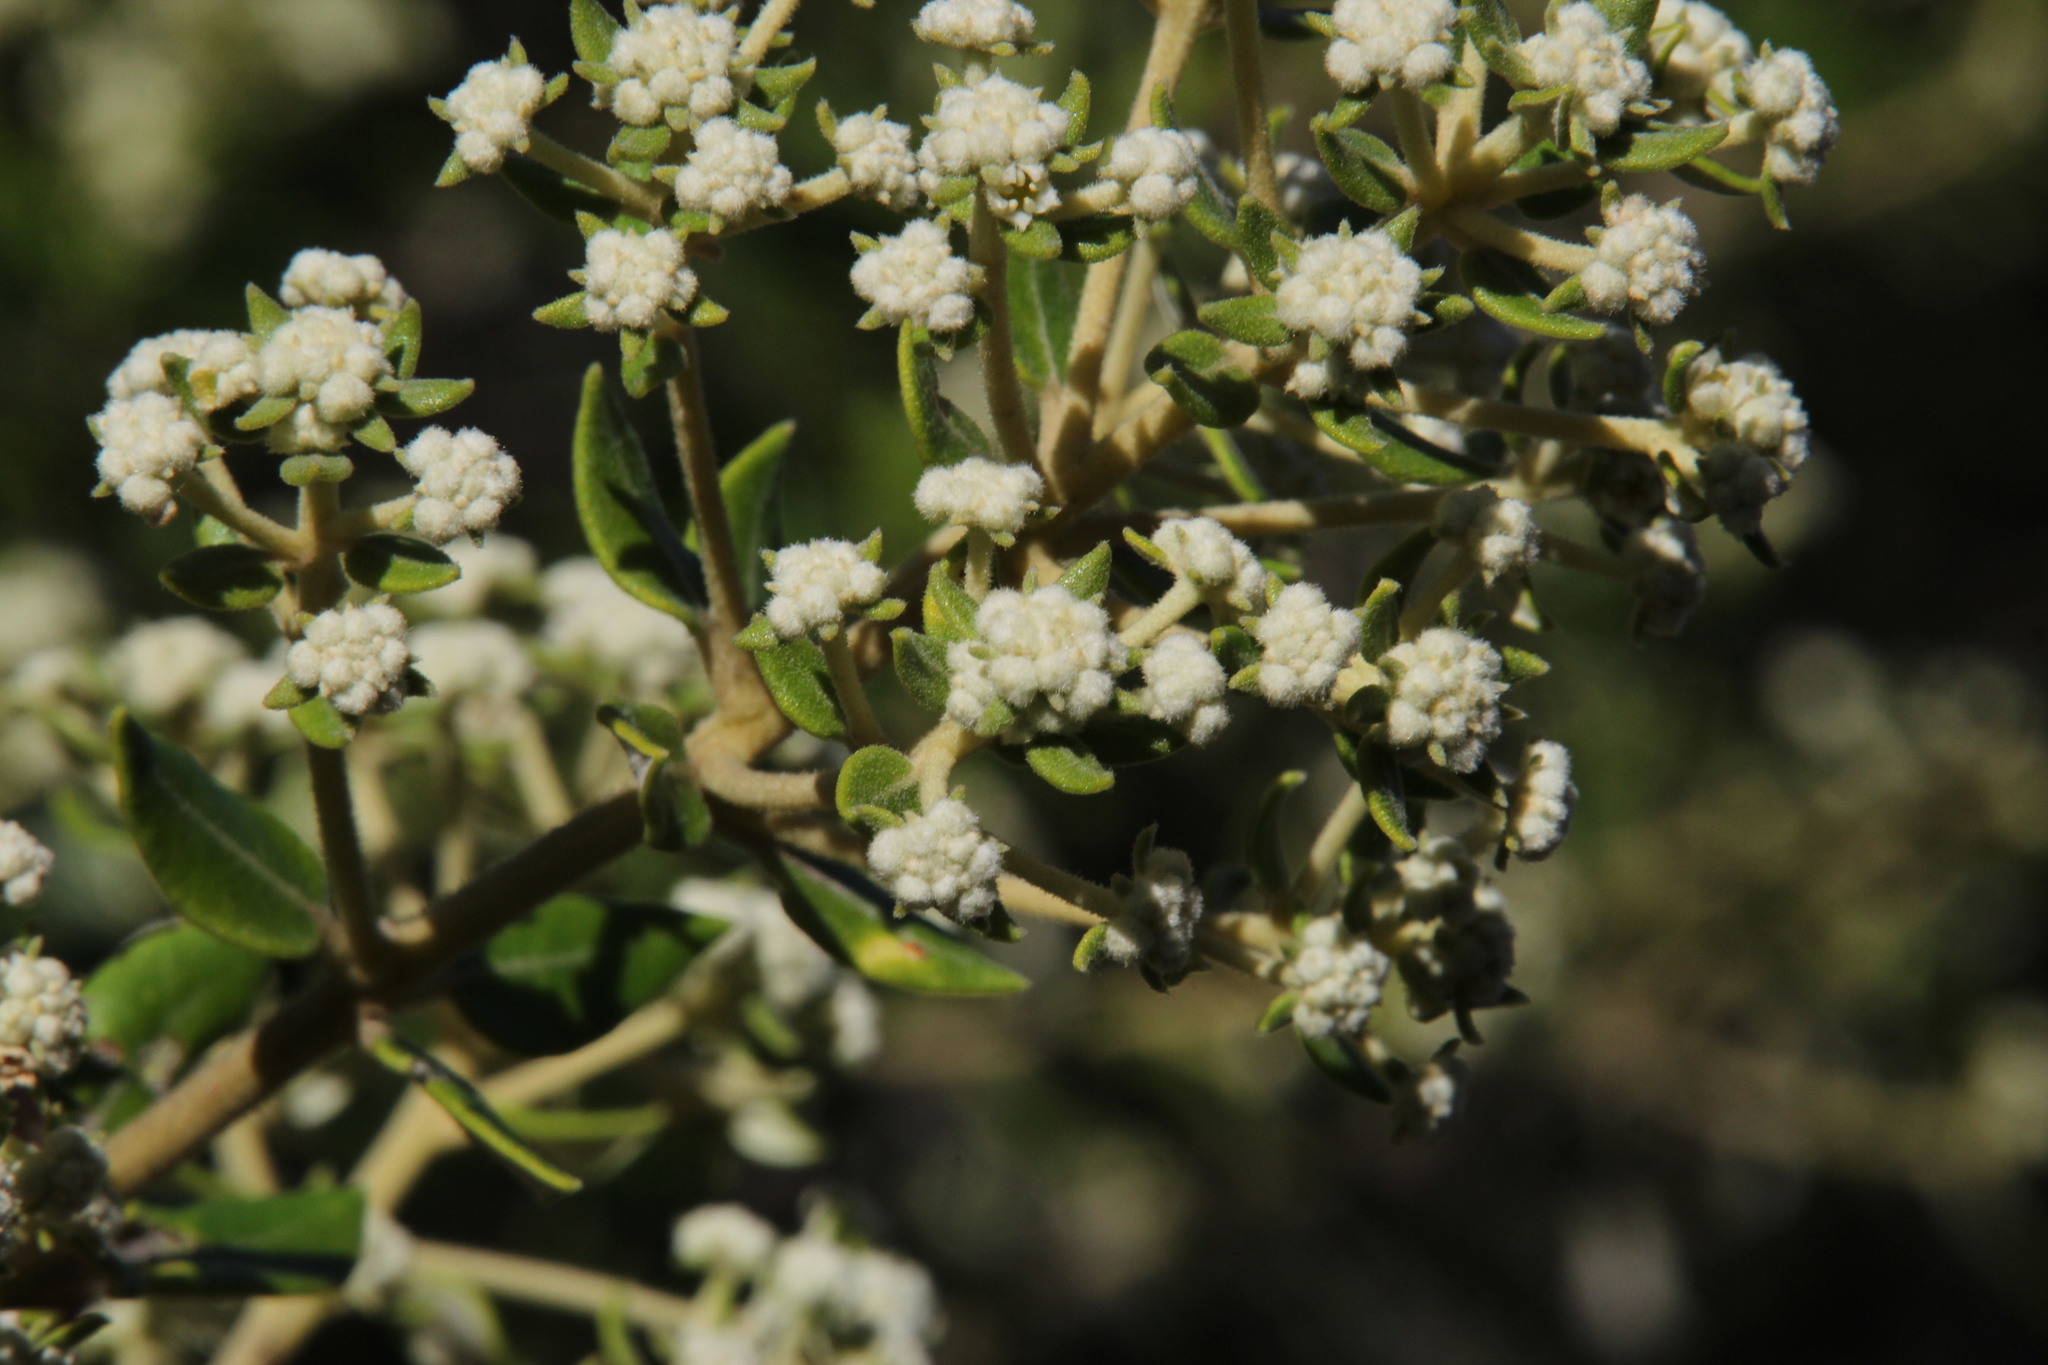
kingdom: Plantae
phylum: Tracheophyta
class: Magnoliopsida
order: Rosales
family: Rhamnaceae
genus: Phylica
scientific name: Phylica buxifolia
